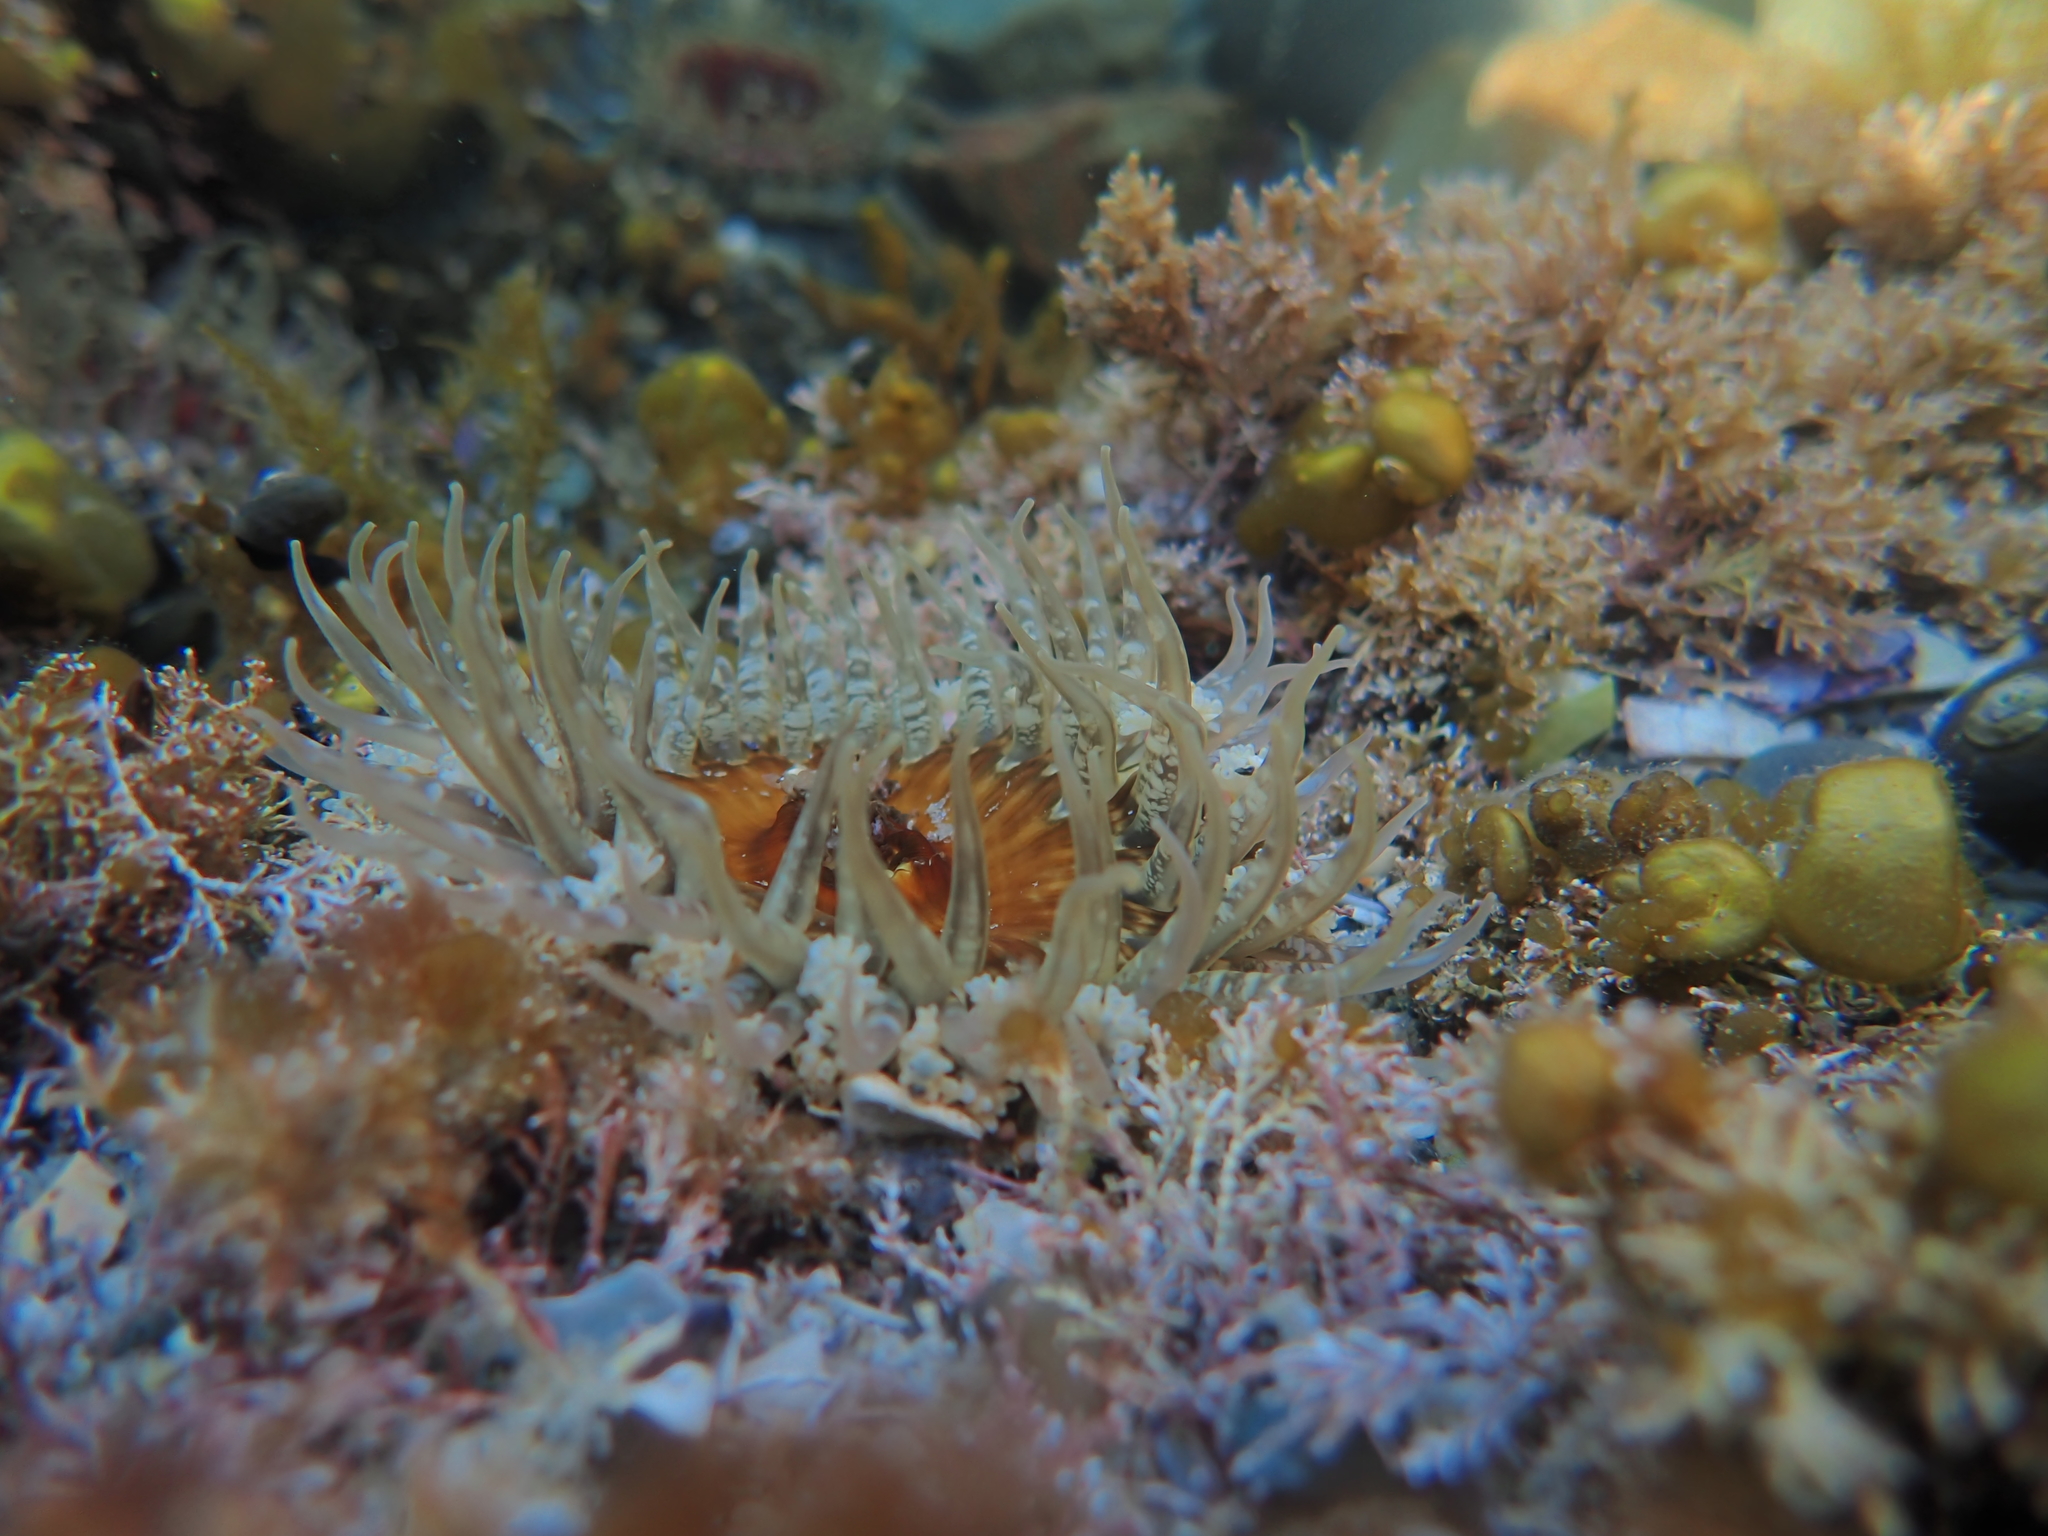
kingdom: Animalia
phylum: Cnidaria
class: Anthozoa
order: Actiniaria
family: Actiniidae
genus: Oulactis
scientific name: Oulactis muscosa
